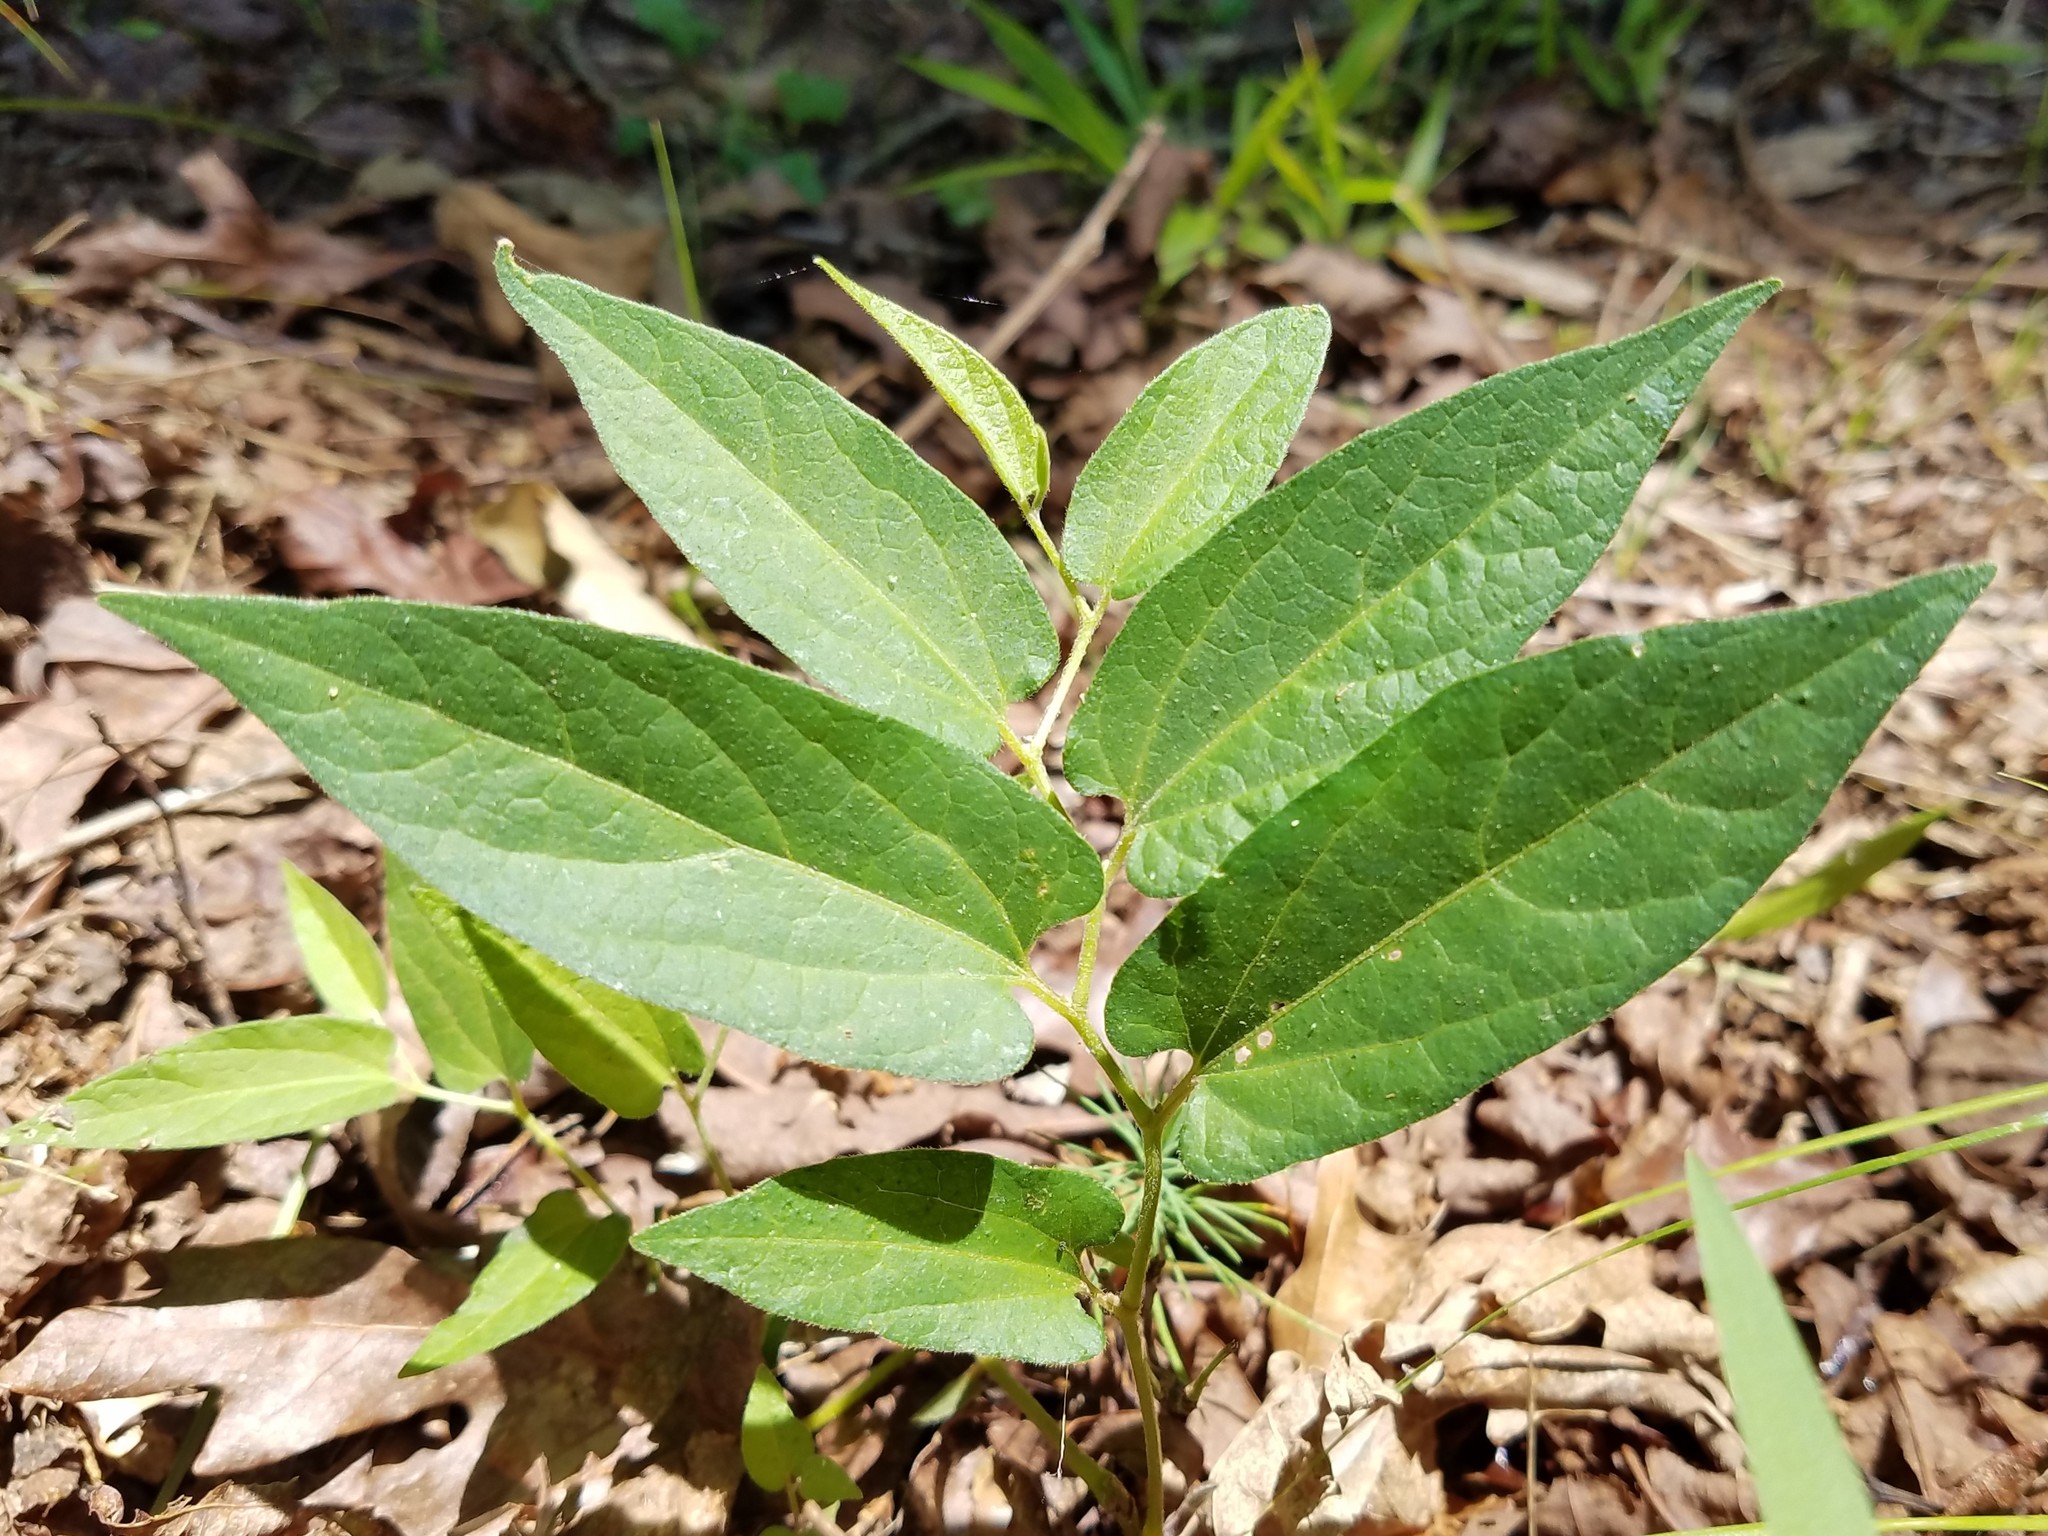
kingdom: Plantae
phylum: Tracheophyta
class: Magnoliopsida
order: Piperales
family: Aristolochiaceae
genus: Endodeca
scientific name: Endodeca serpentaria
